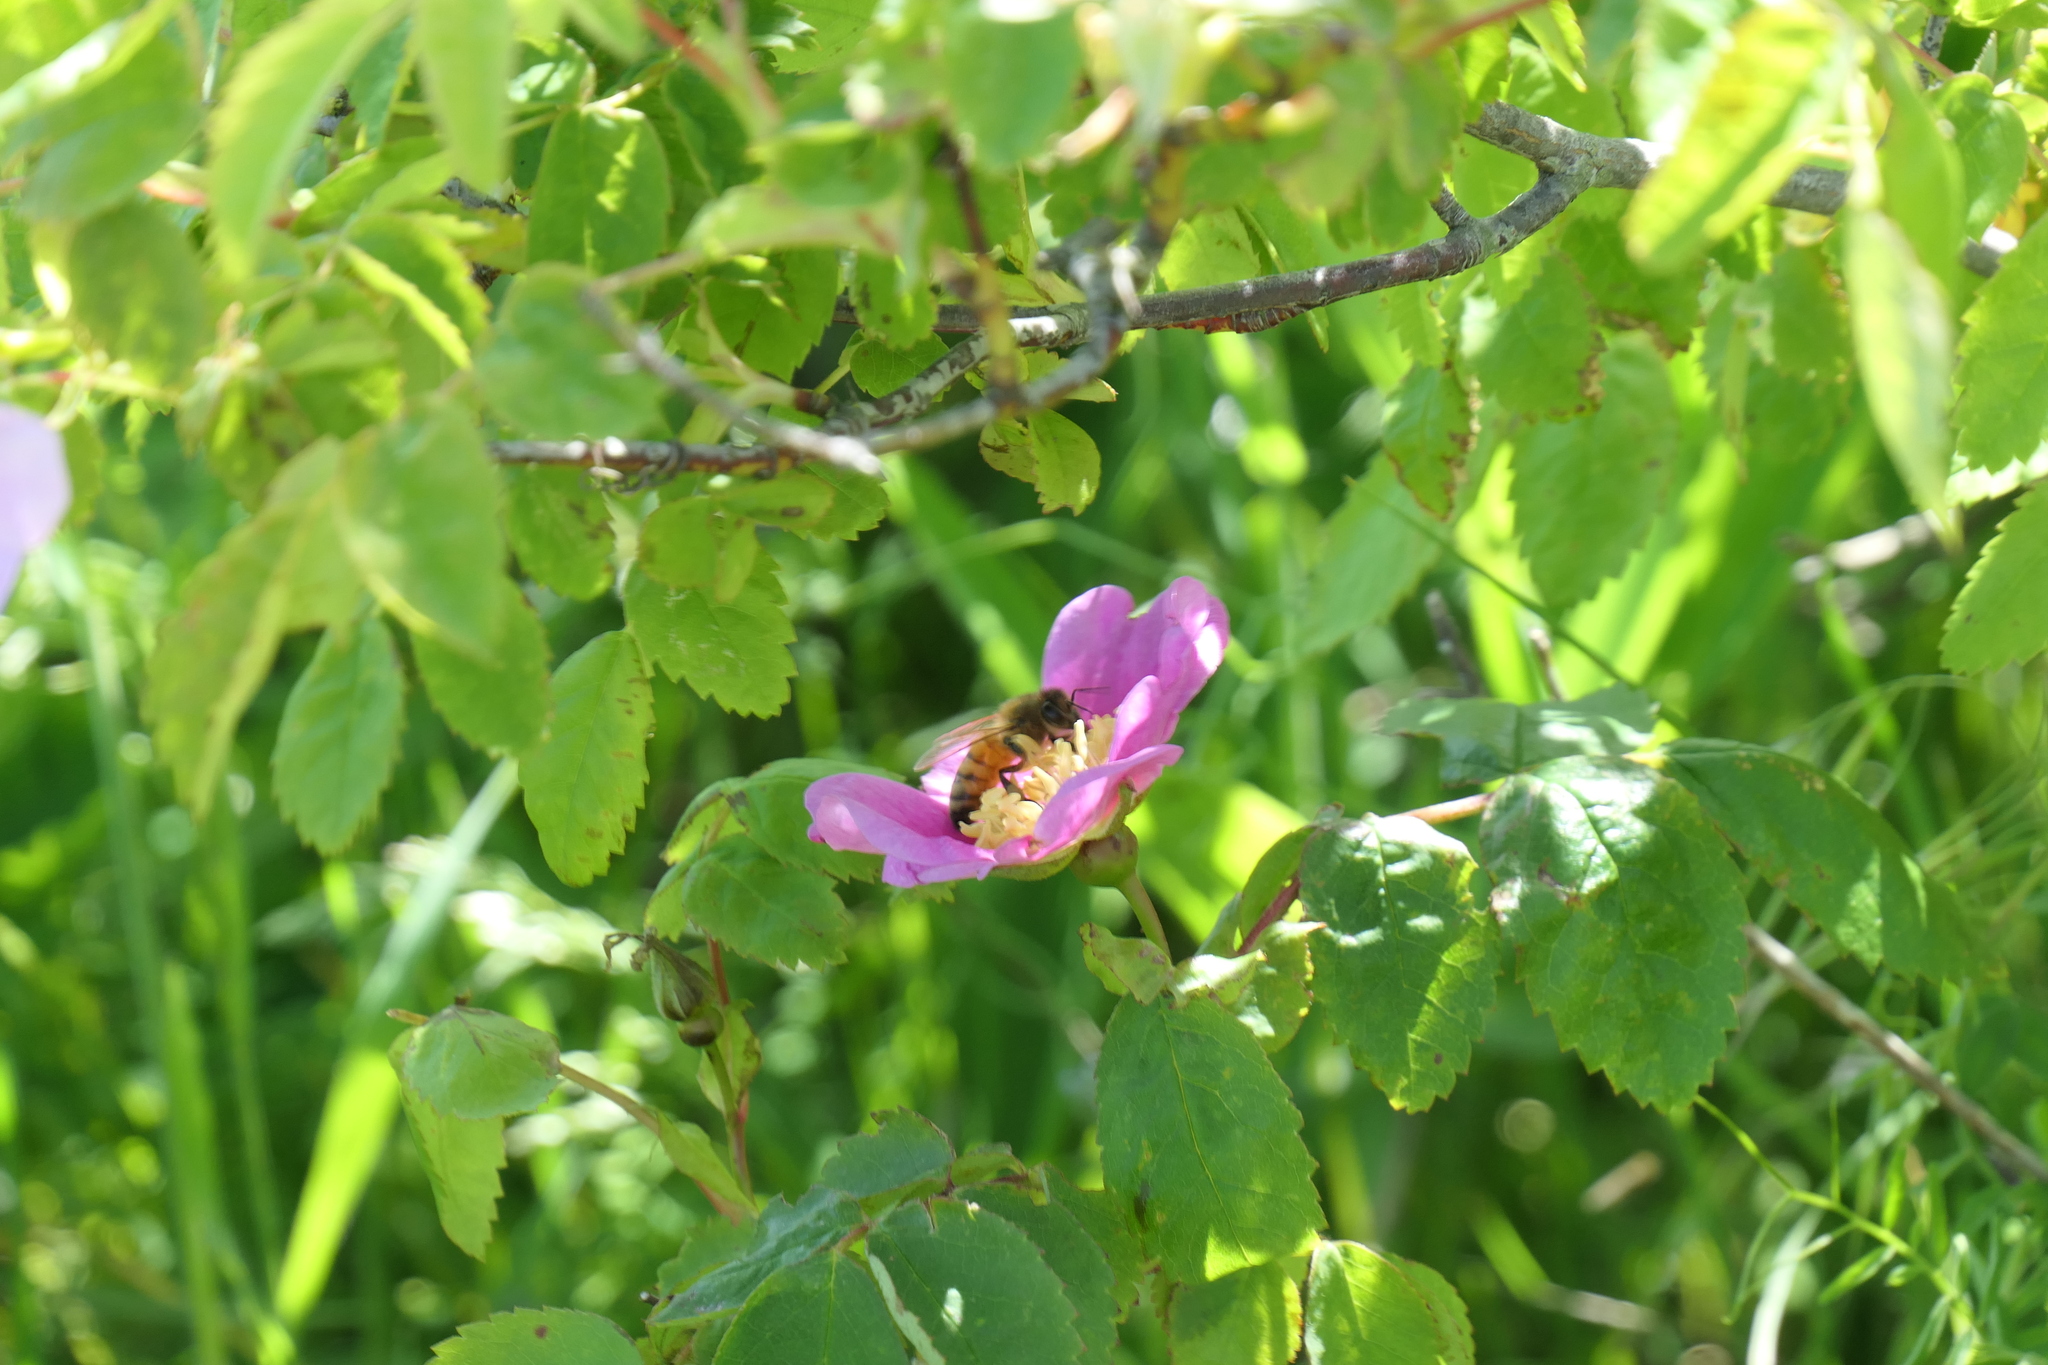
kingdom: Animalia
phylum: Arthropoda
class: Insecta
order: Hymenoptera
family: Apidae
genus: Apis
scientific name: Apis mellifera
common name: Honey bee
